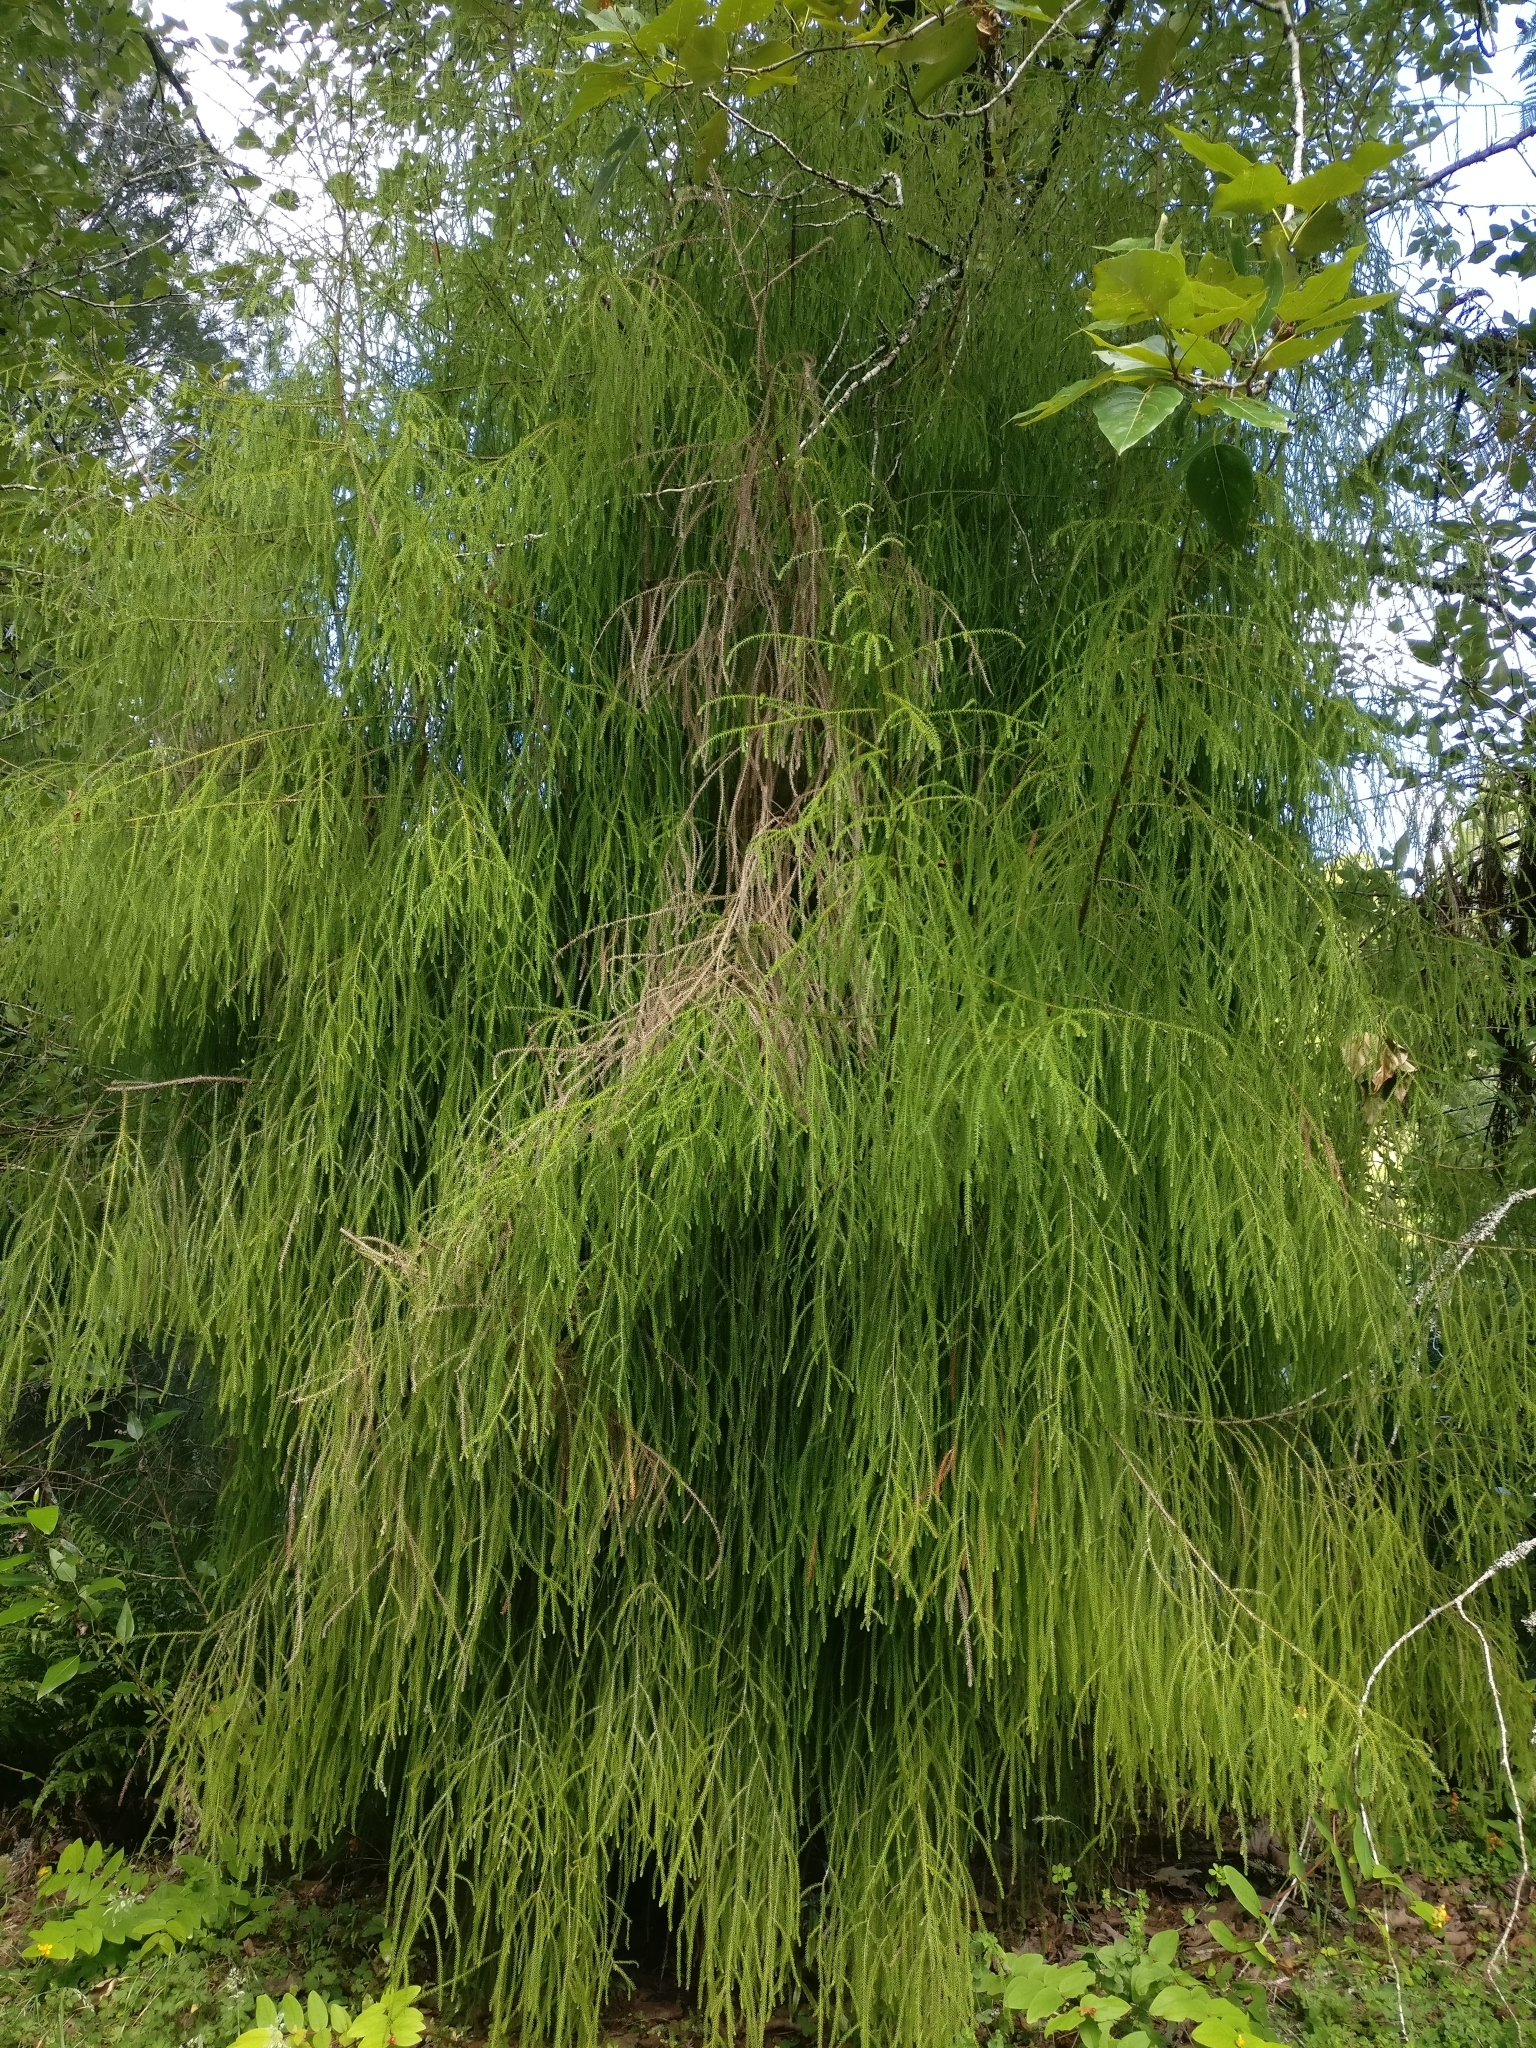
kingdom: Plantae
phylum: Tracheophyta
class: Pinopsida
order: Pinales
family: Podocarpaceae
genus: Dacrydium
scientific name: Dacrydium cupressinum
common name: Red pine
